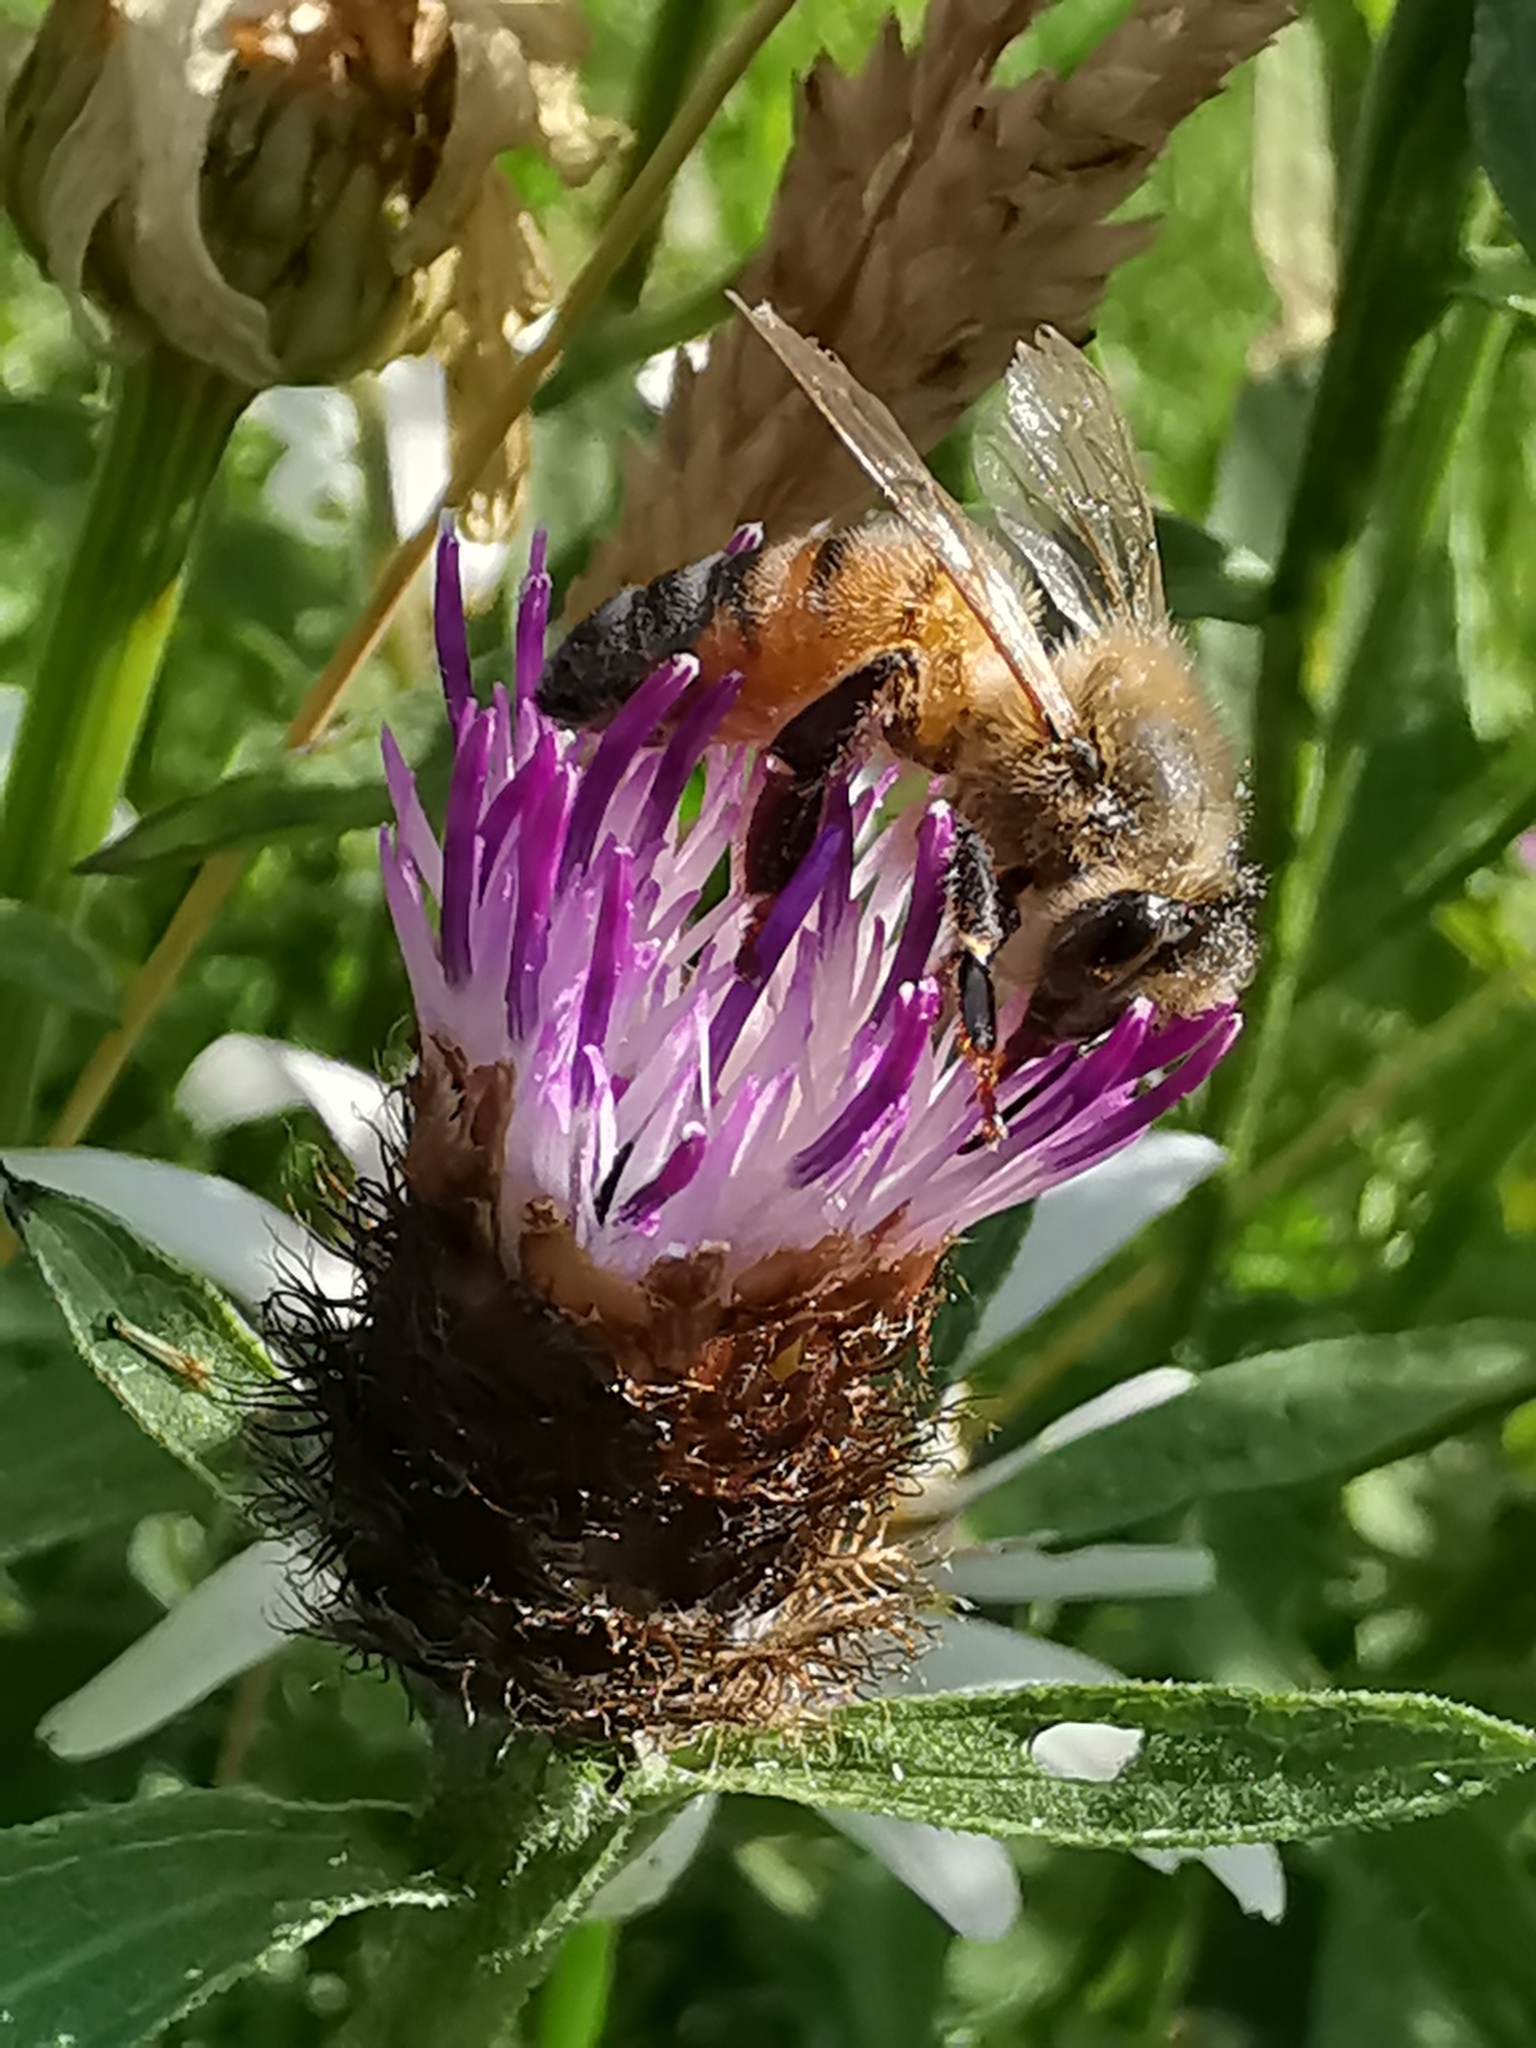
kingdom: Animalia
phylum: Arthropoda
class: Insecta
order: Hymenoptera
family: Apidae
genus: Apis
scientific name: Apis mellifera
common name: Honey bee
